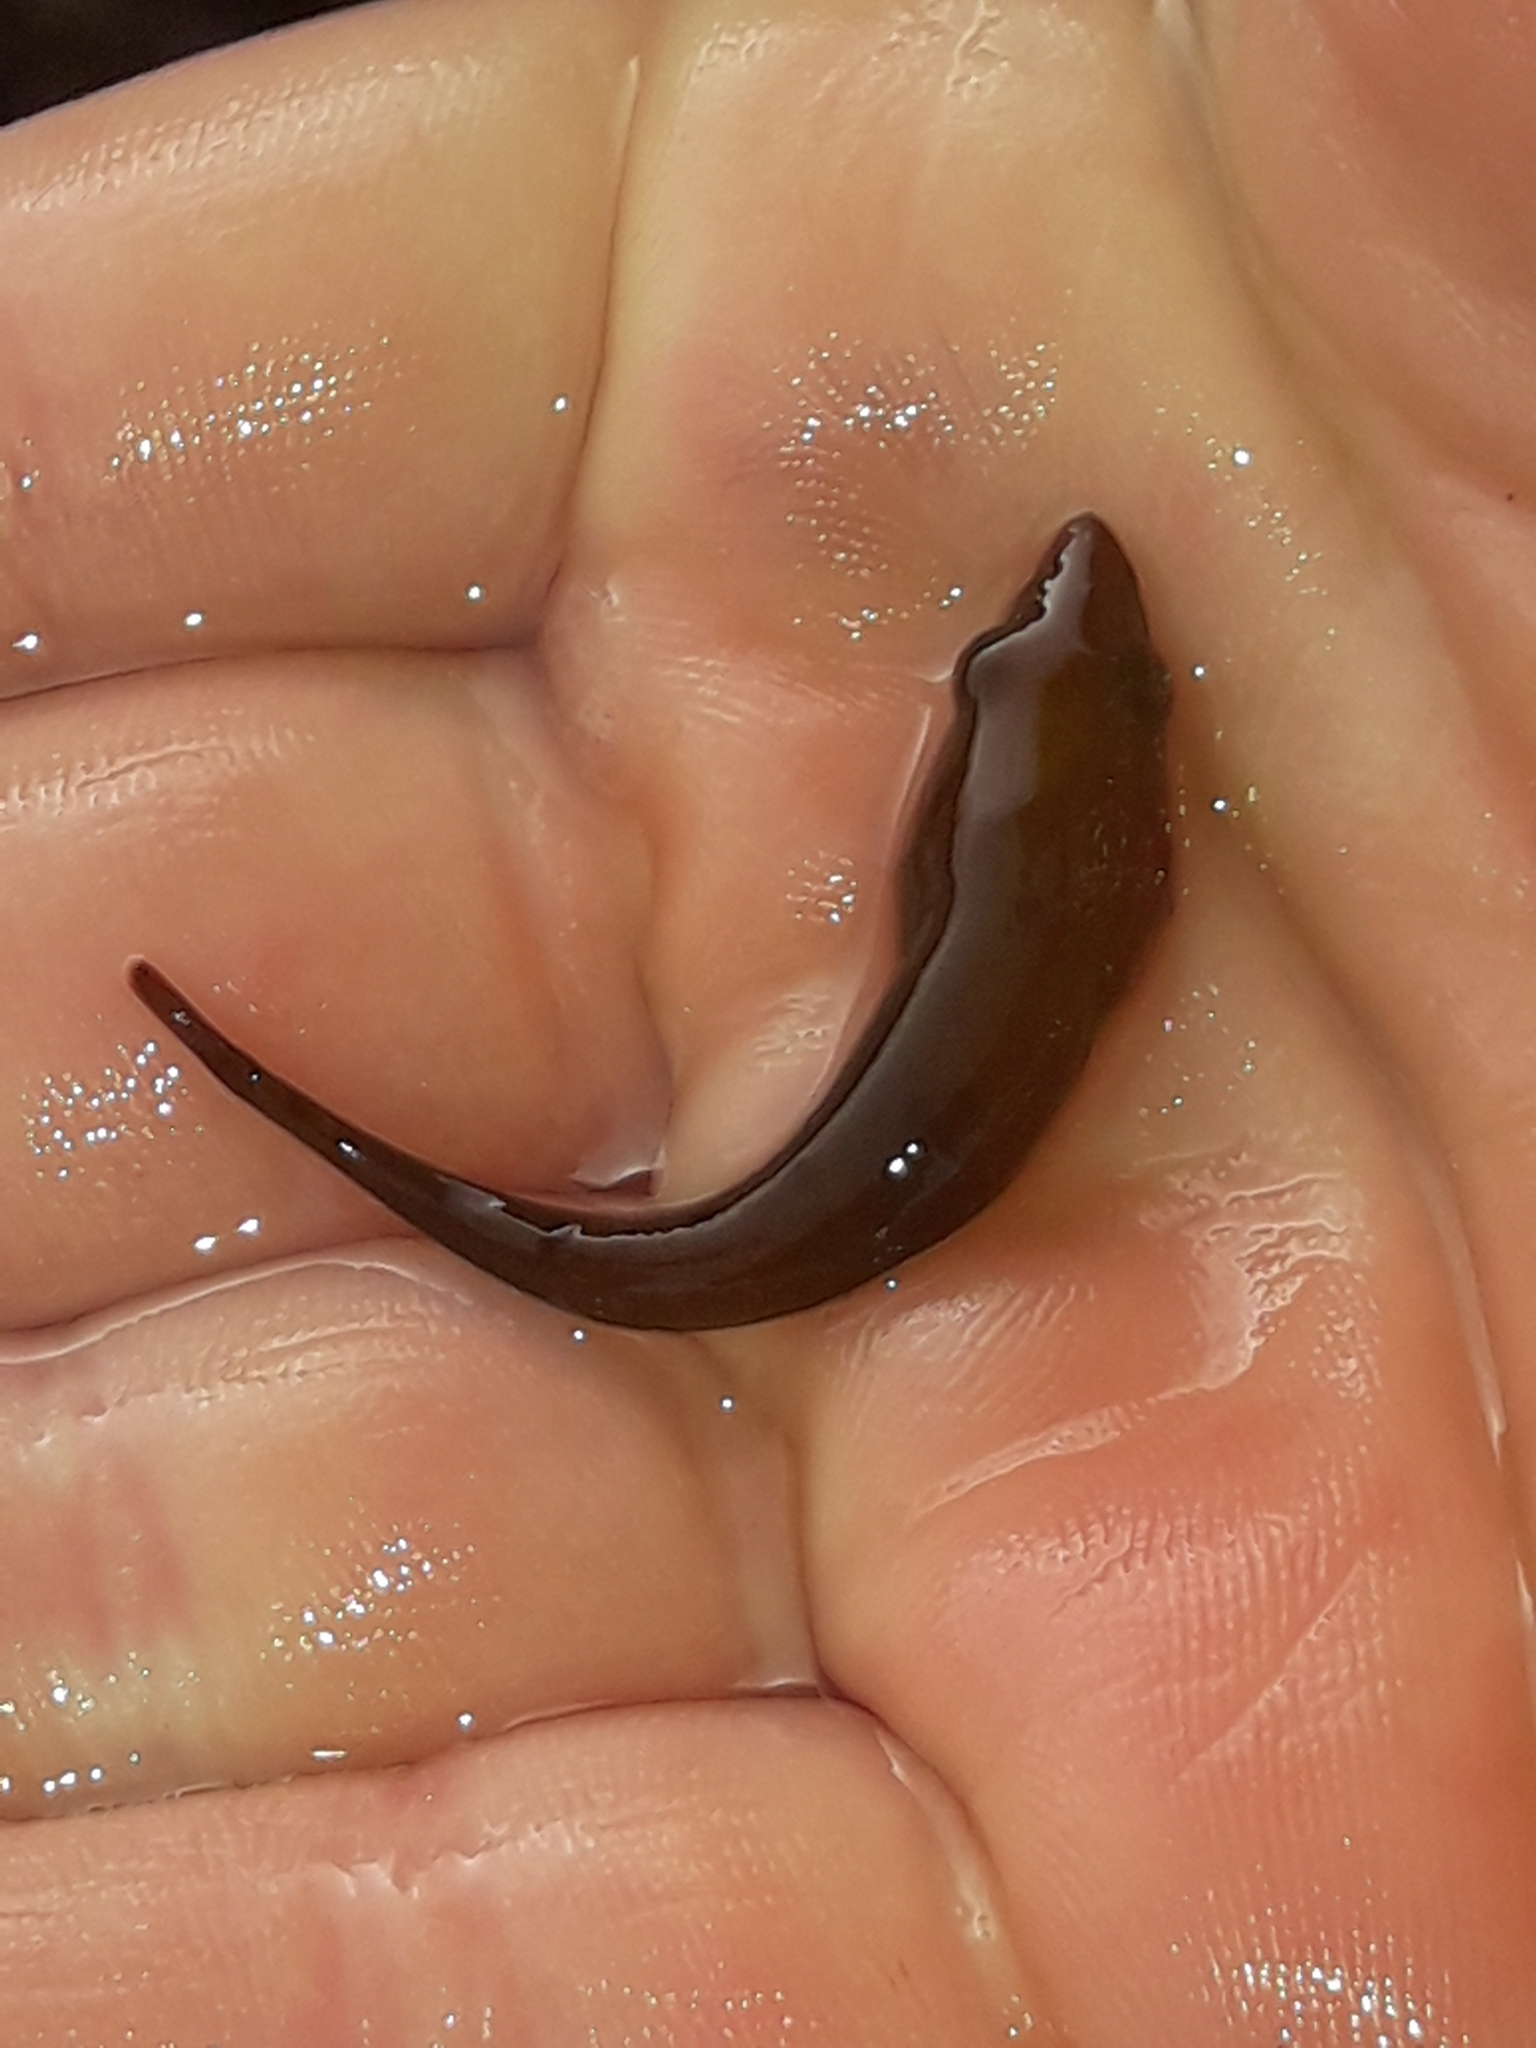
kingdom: Animalia
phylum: Chordata
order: Gobiesociformes
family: Gobiesocidae
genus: Gastrocyathus
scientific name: Gastrocyathus gracilis
